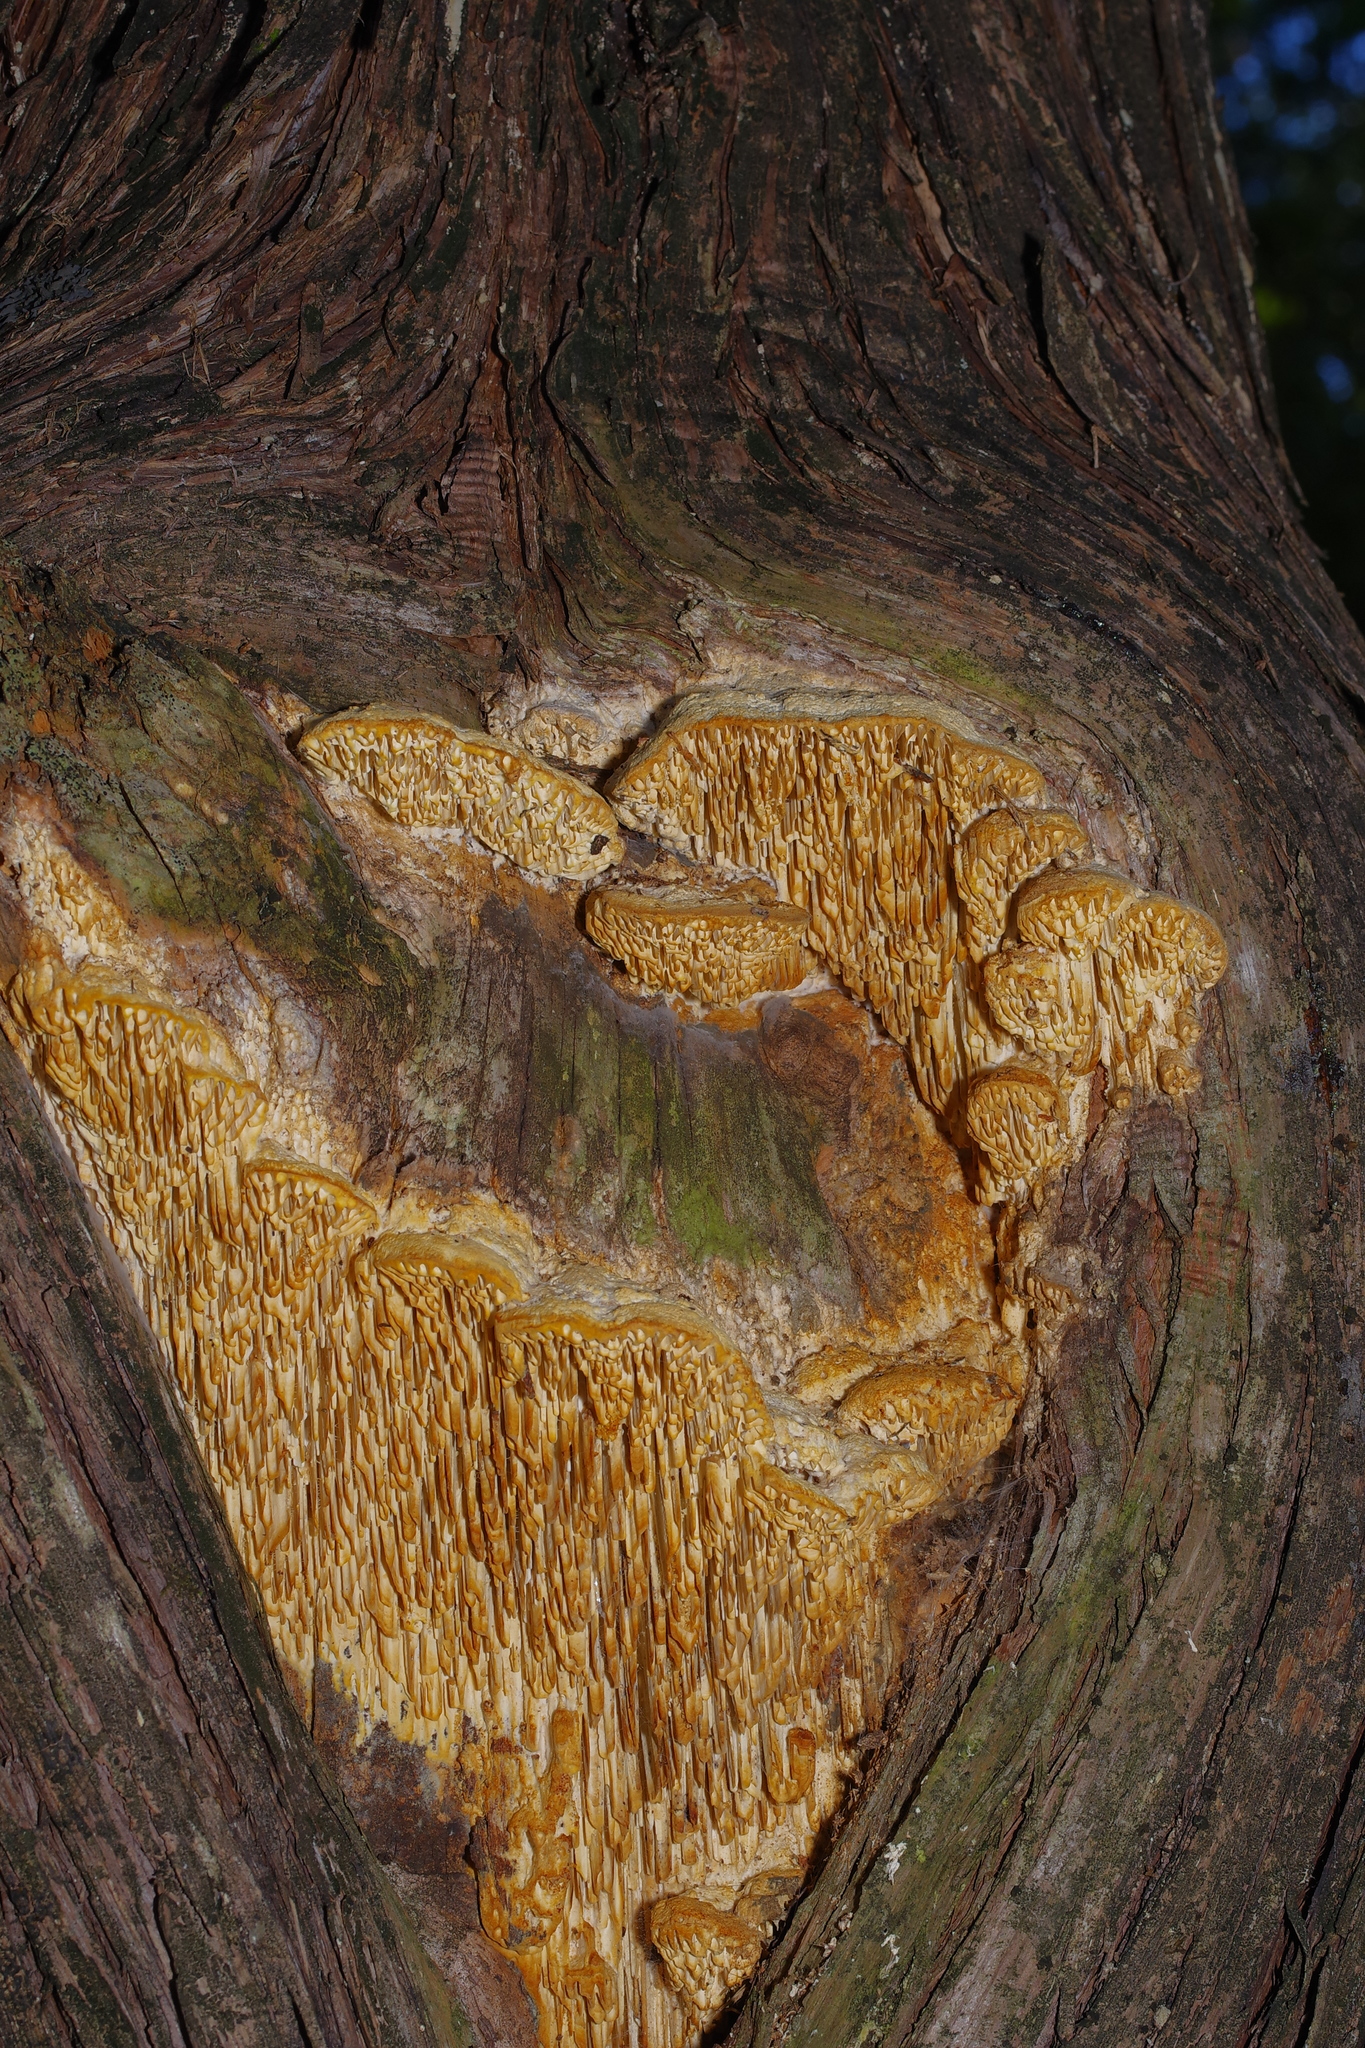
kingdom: Fungi
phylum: Basidiomycota
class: Agaricomycetes
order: Polyporales
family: Fomitopsidaceae
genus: Fomitopsis
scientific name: Fomitopsis
